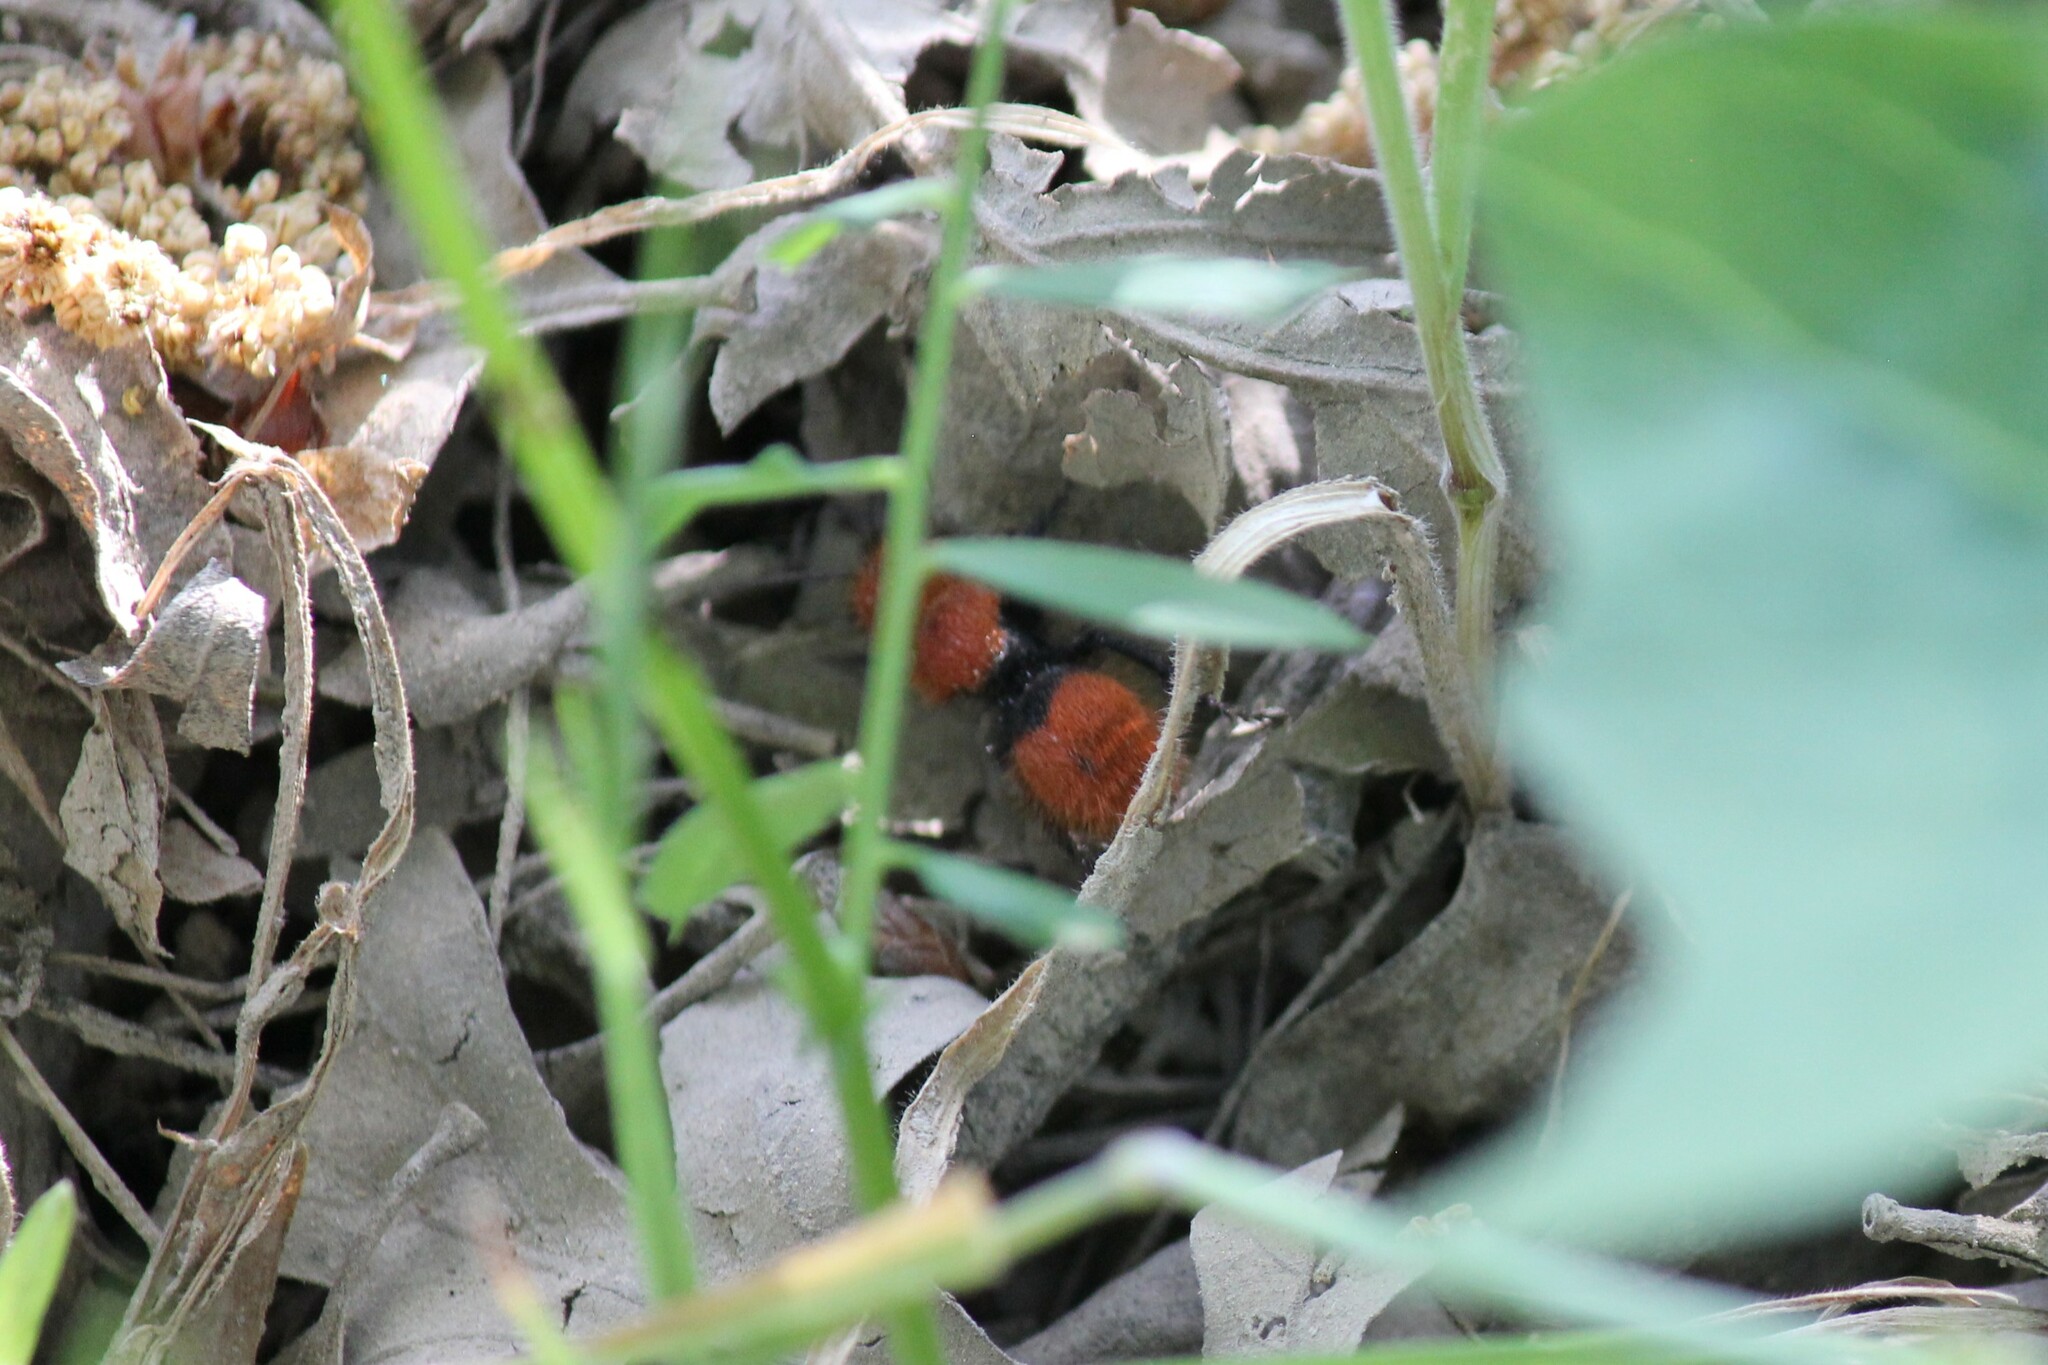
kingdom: Animalia
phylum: Arthropoda
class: Insecta
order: Hymenoptera
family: Mutillidae
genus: Dasymutilla
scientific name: Dasymutilla
